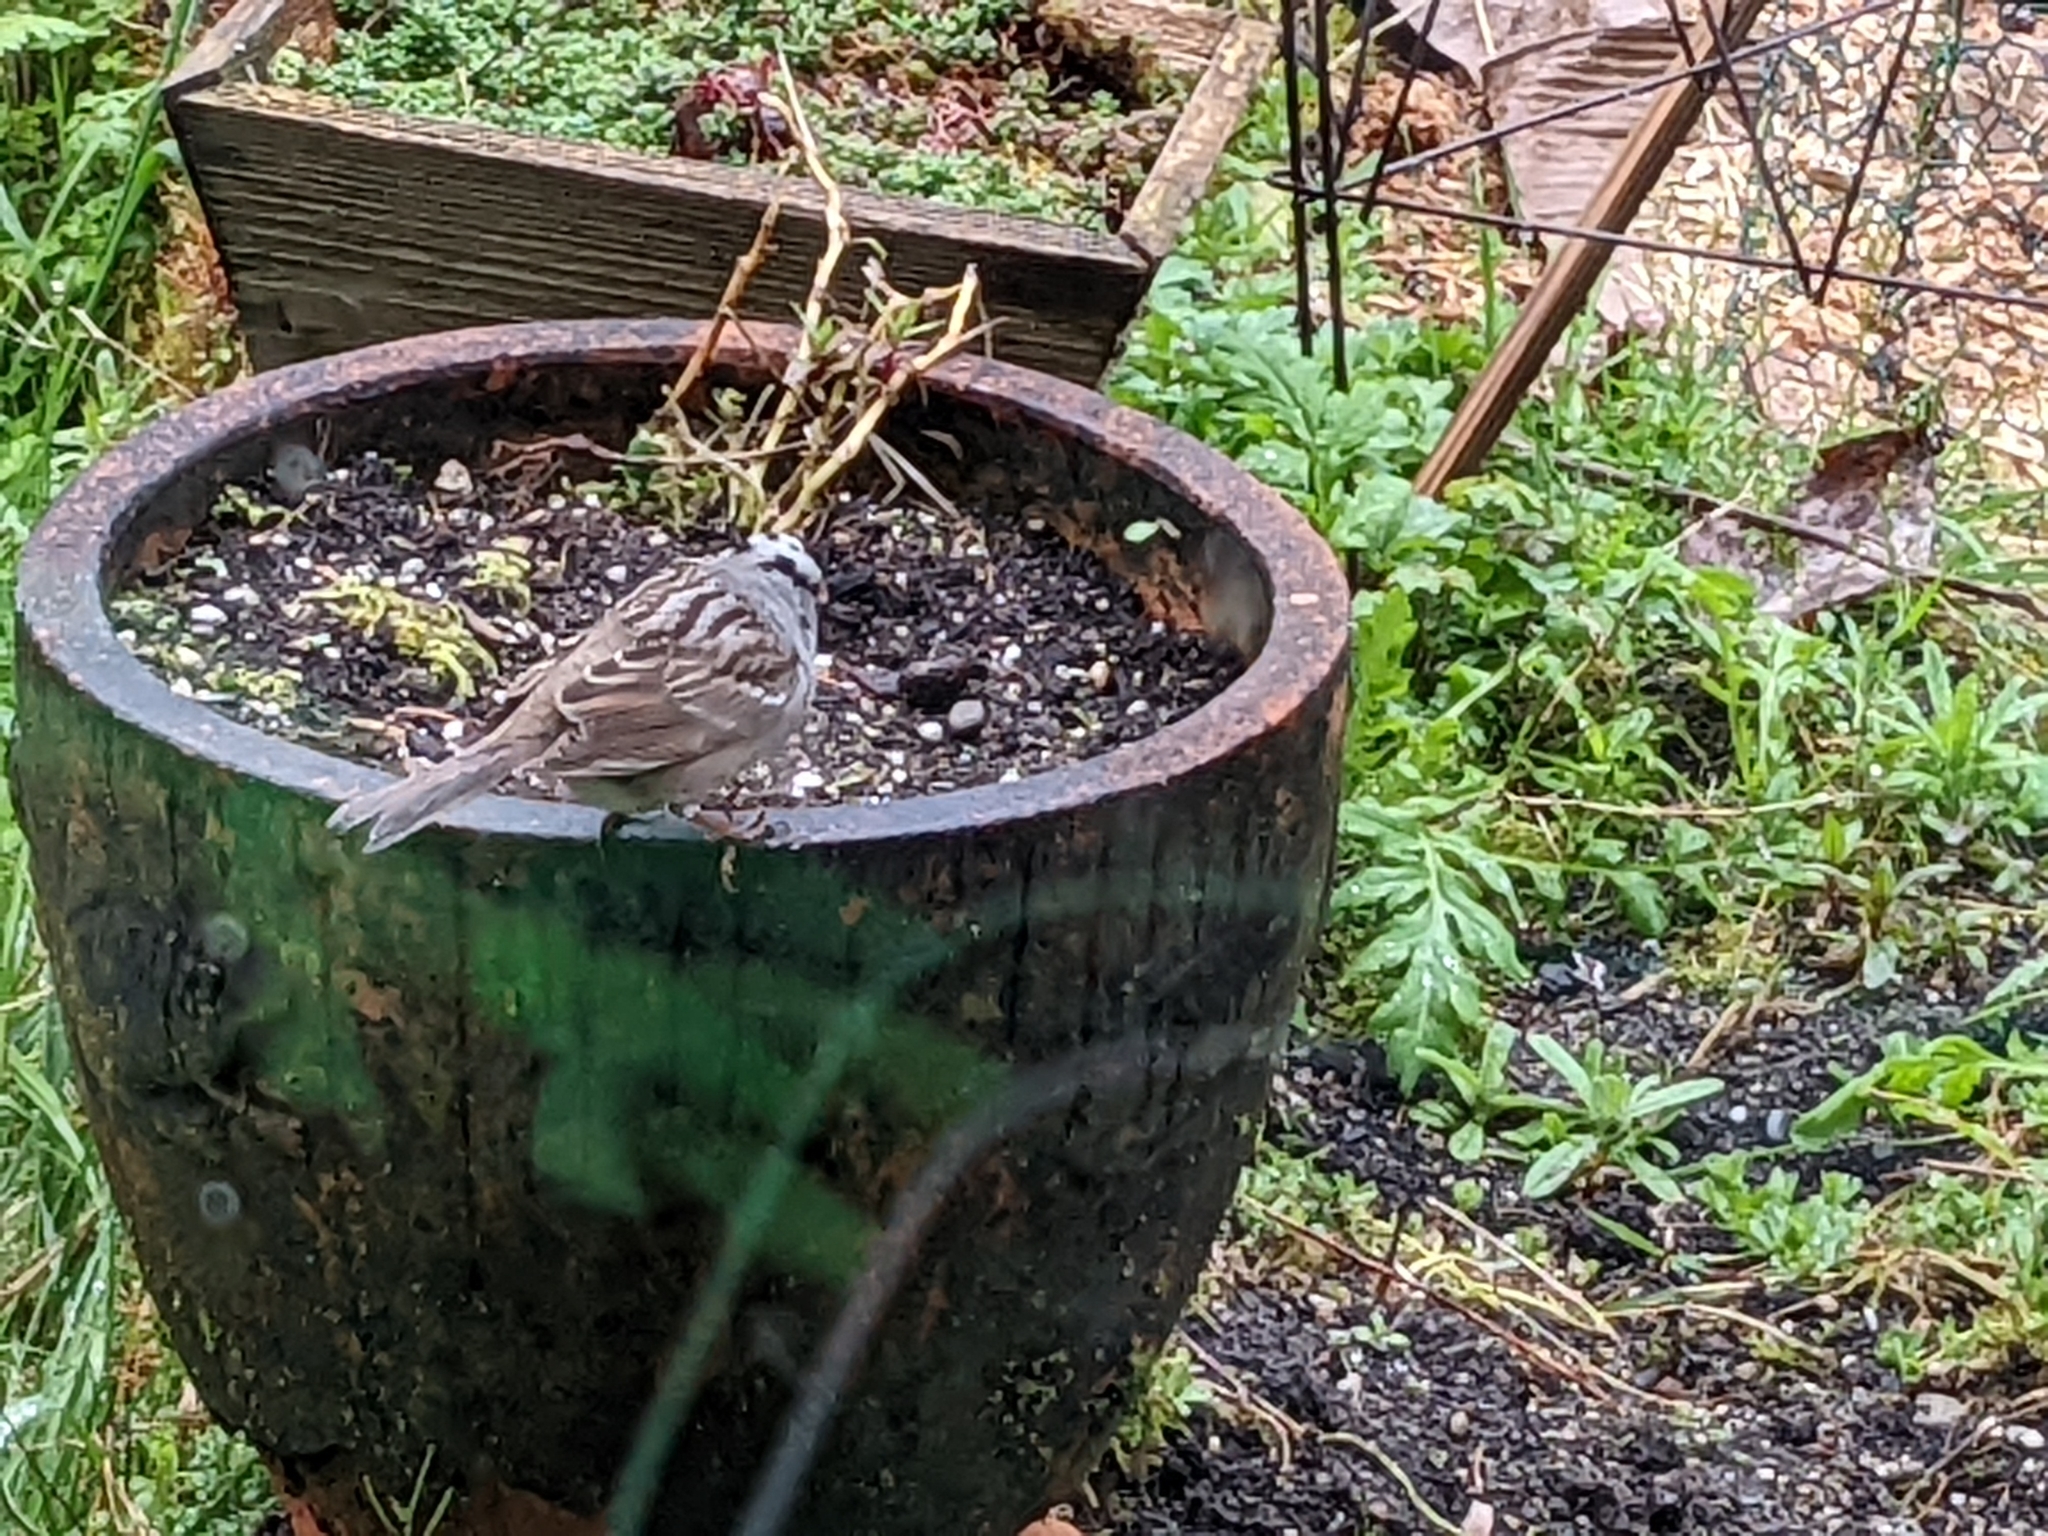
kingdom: Animalia
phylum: Chordata
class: Aves
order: Passeriformes
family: Passerellidae
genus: Zonotrichia
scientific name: Zonotrichia leucophrys
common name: White-crowned sparrow
